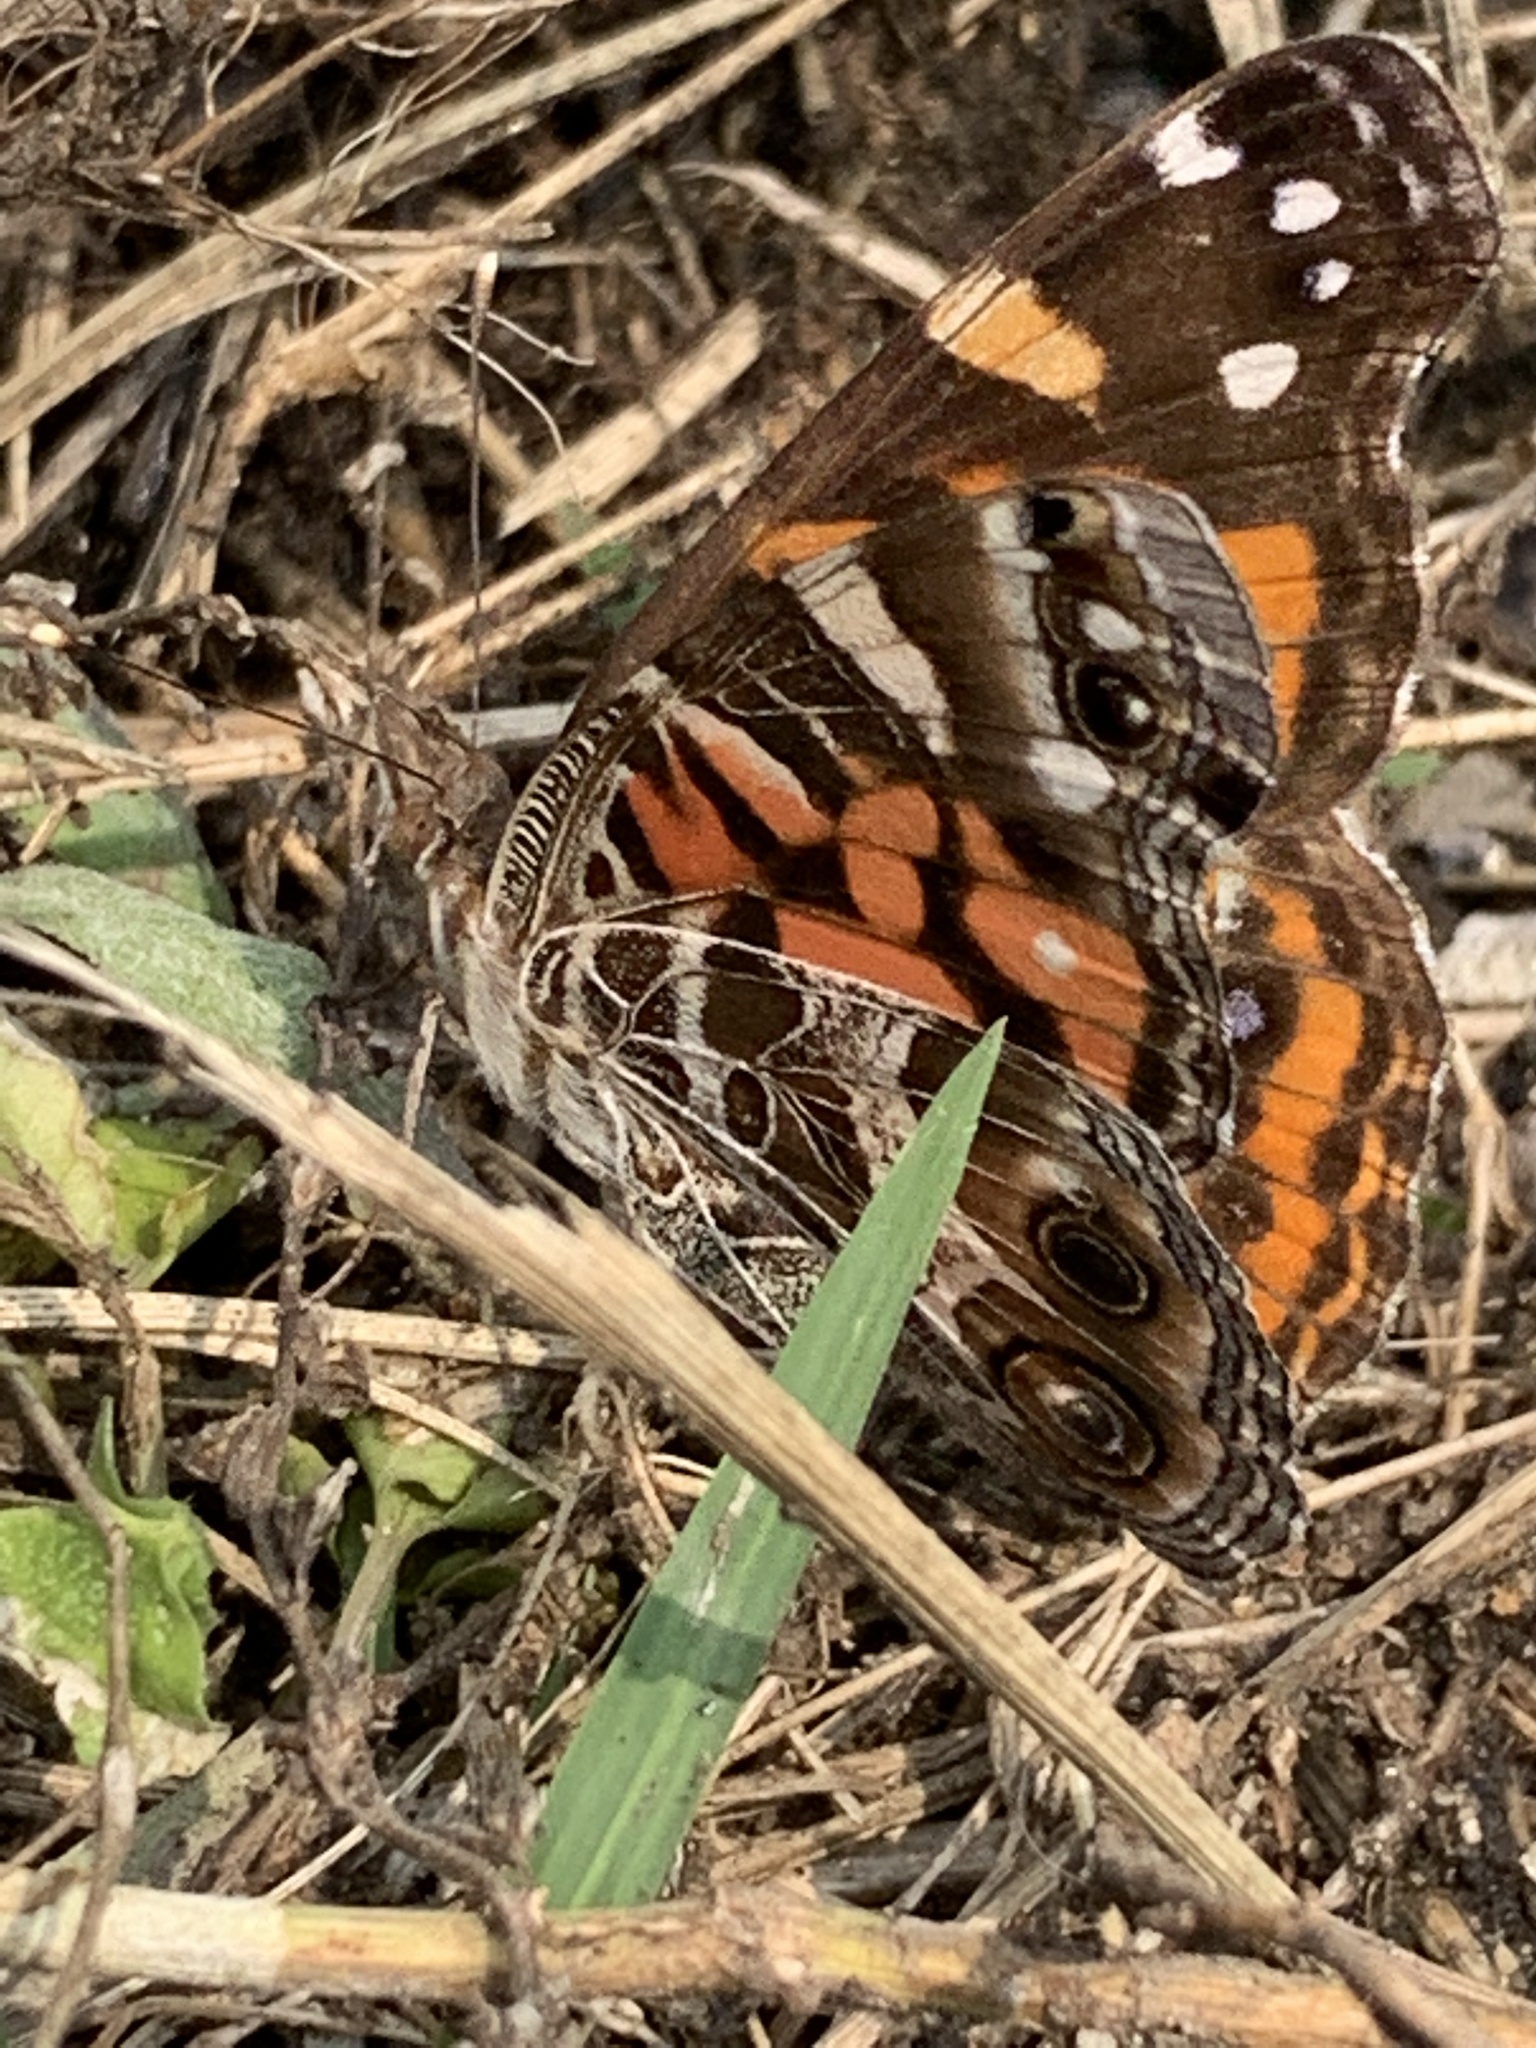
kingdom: Animalia
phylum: Arthropoda
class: Insecta
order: Lepidoptera
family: Nymphalidae
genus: Vanessa
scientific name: Vanessa virginiensis
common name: American lady
